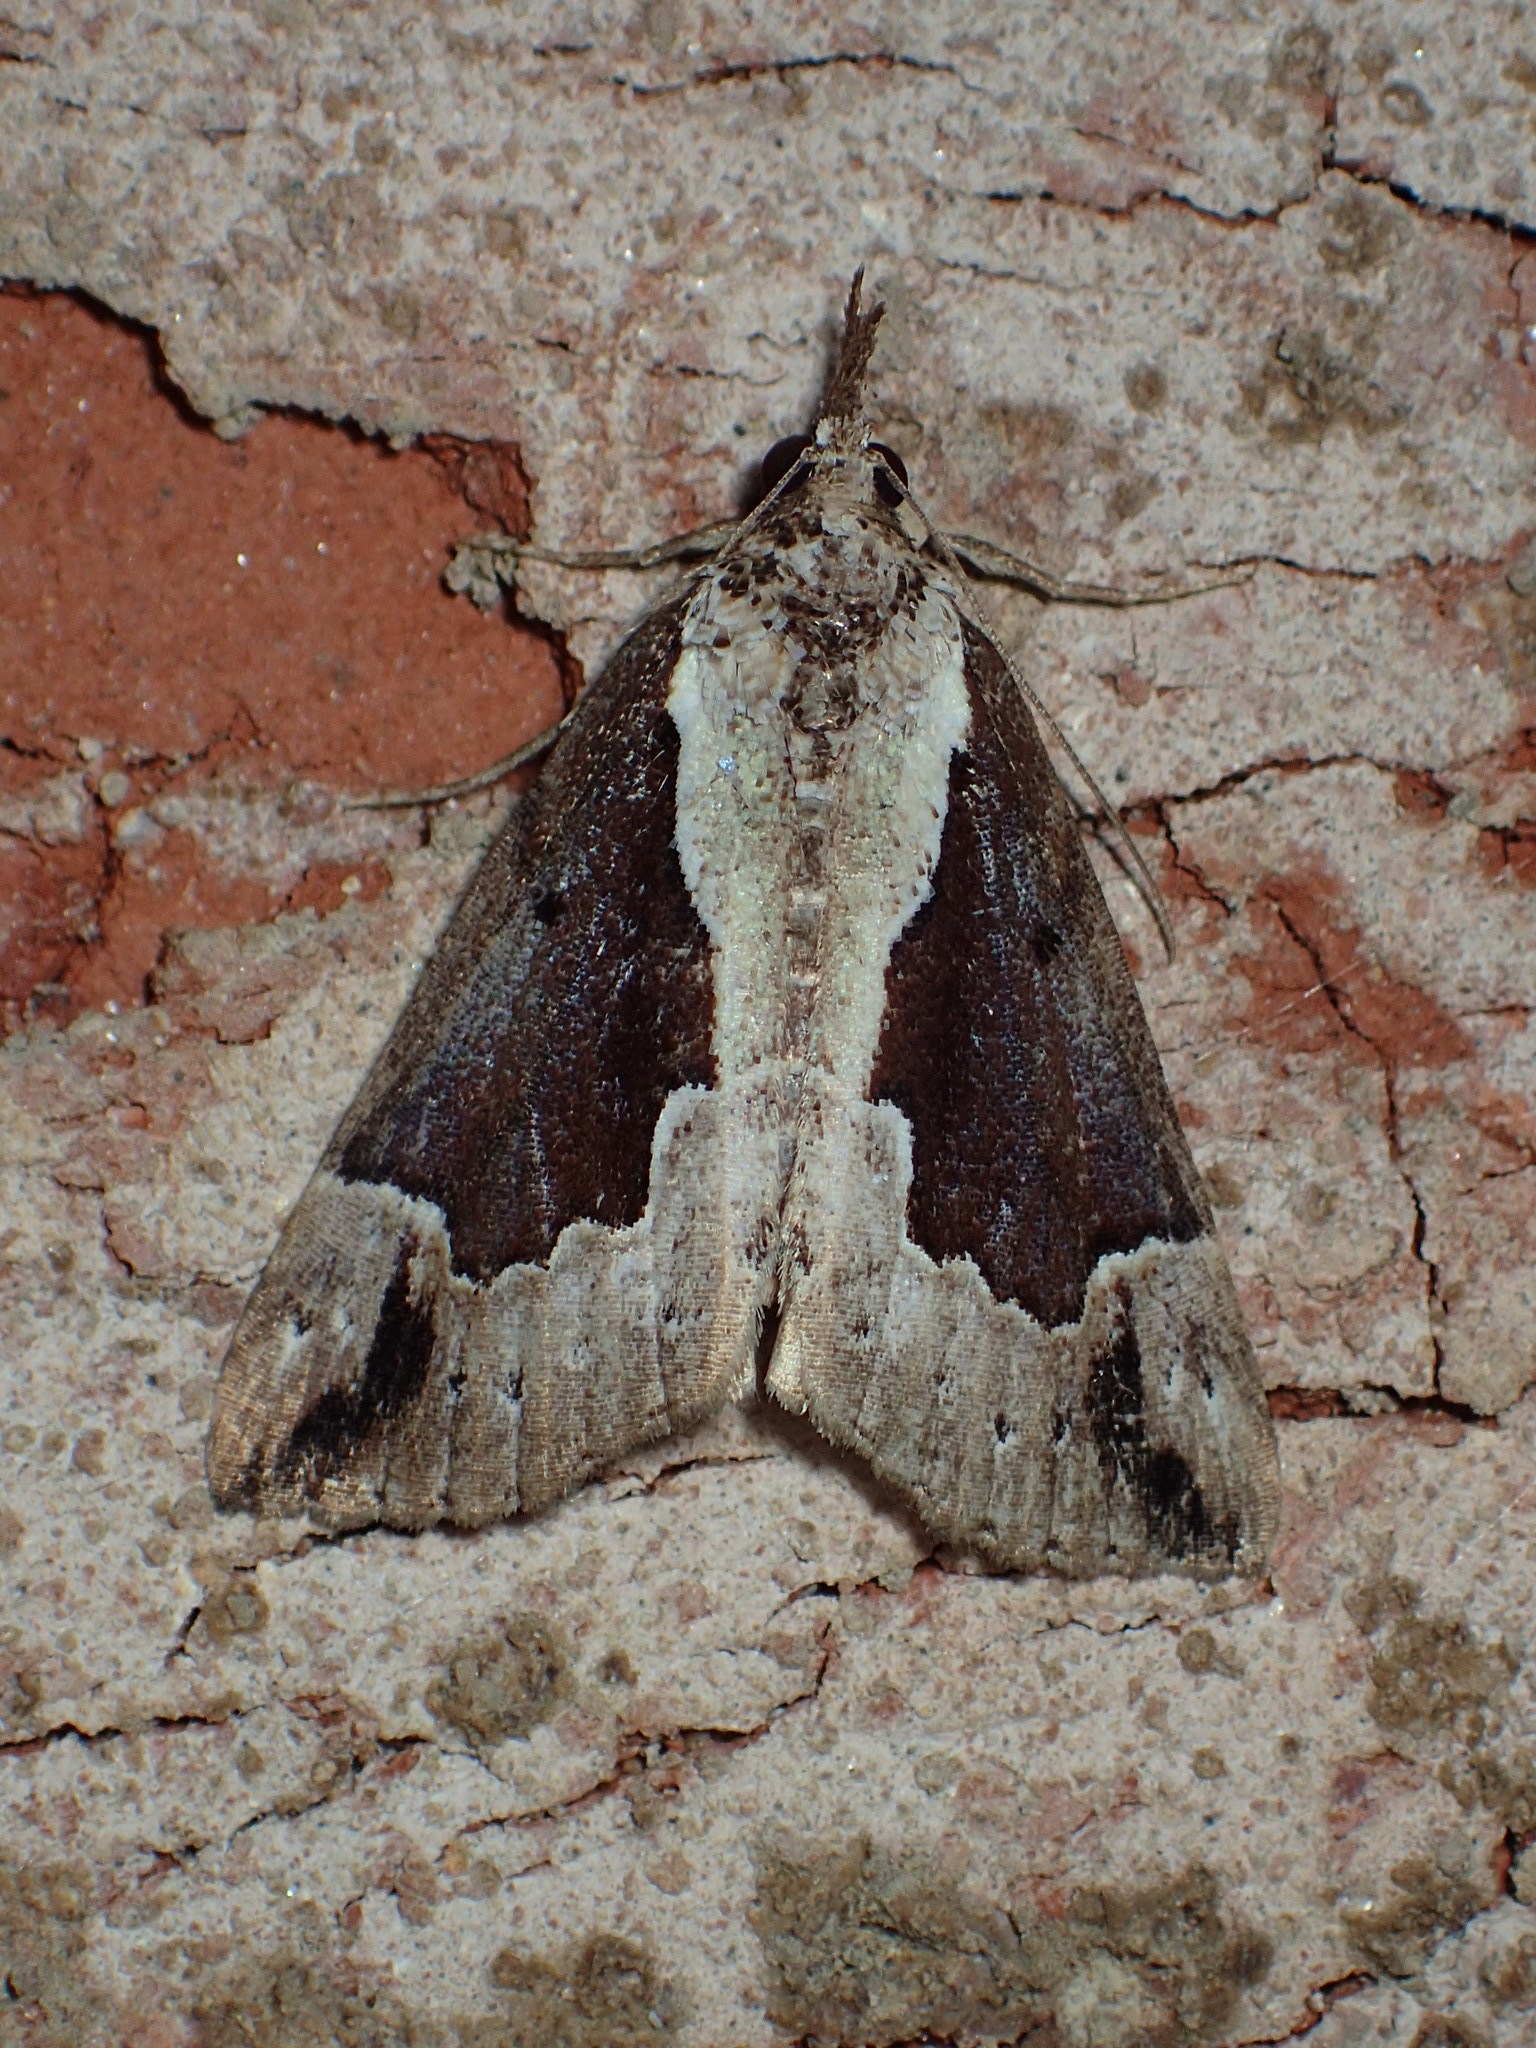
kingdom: Animalia
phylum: Arthropoda
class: Insecta
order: Lepidoptera
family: Erebidae
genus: Hypena
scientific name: Hypena baltimoralis
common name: Baltimore snout
